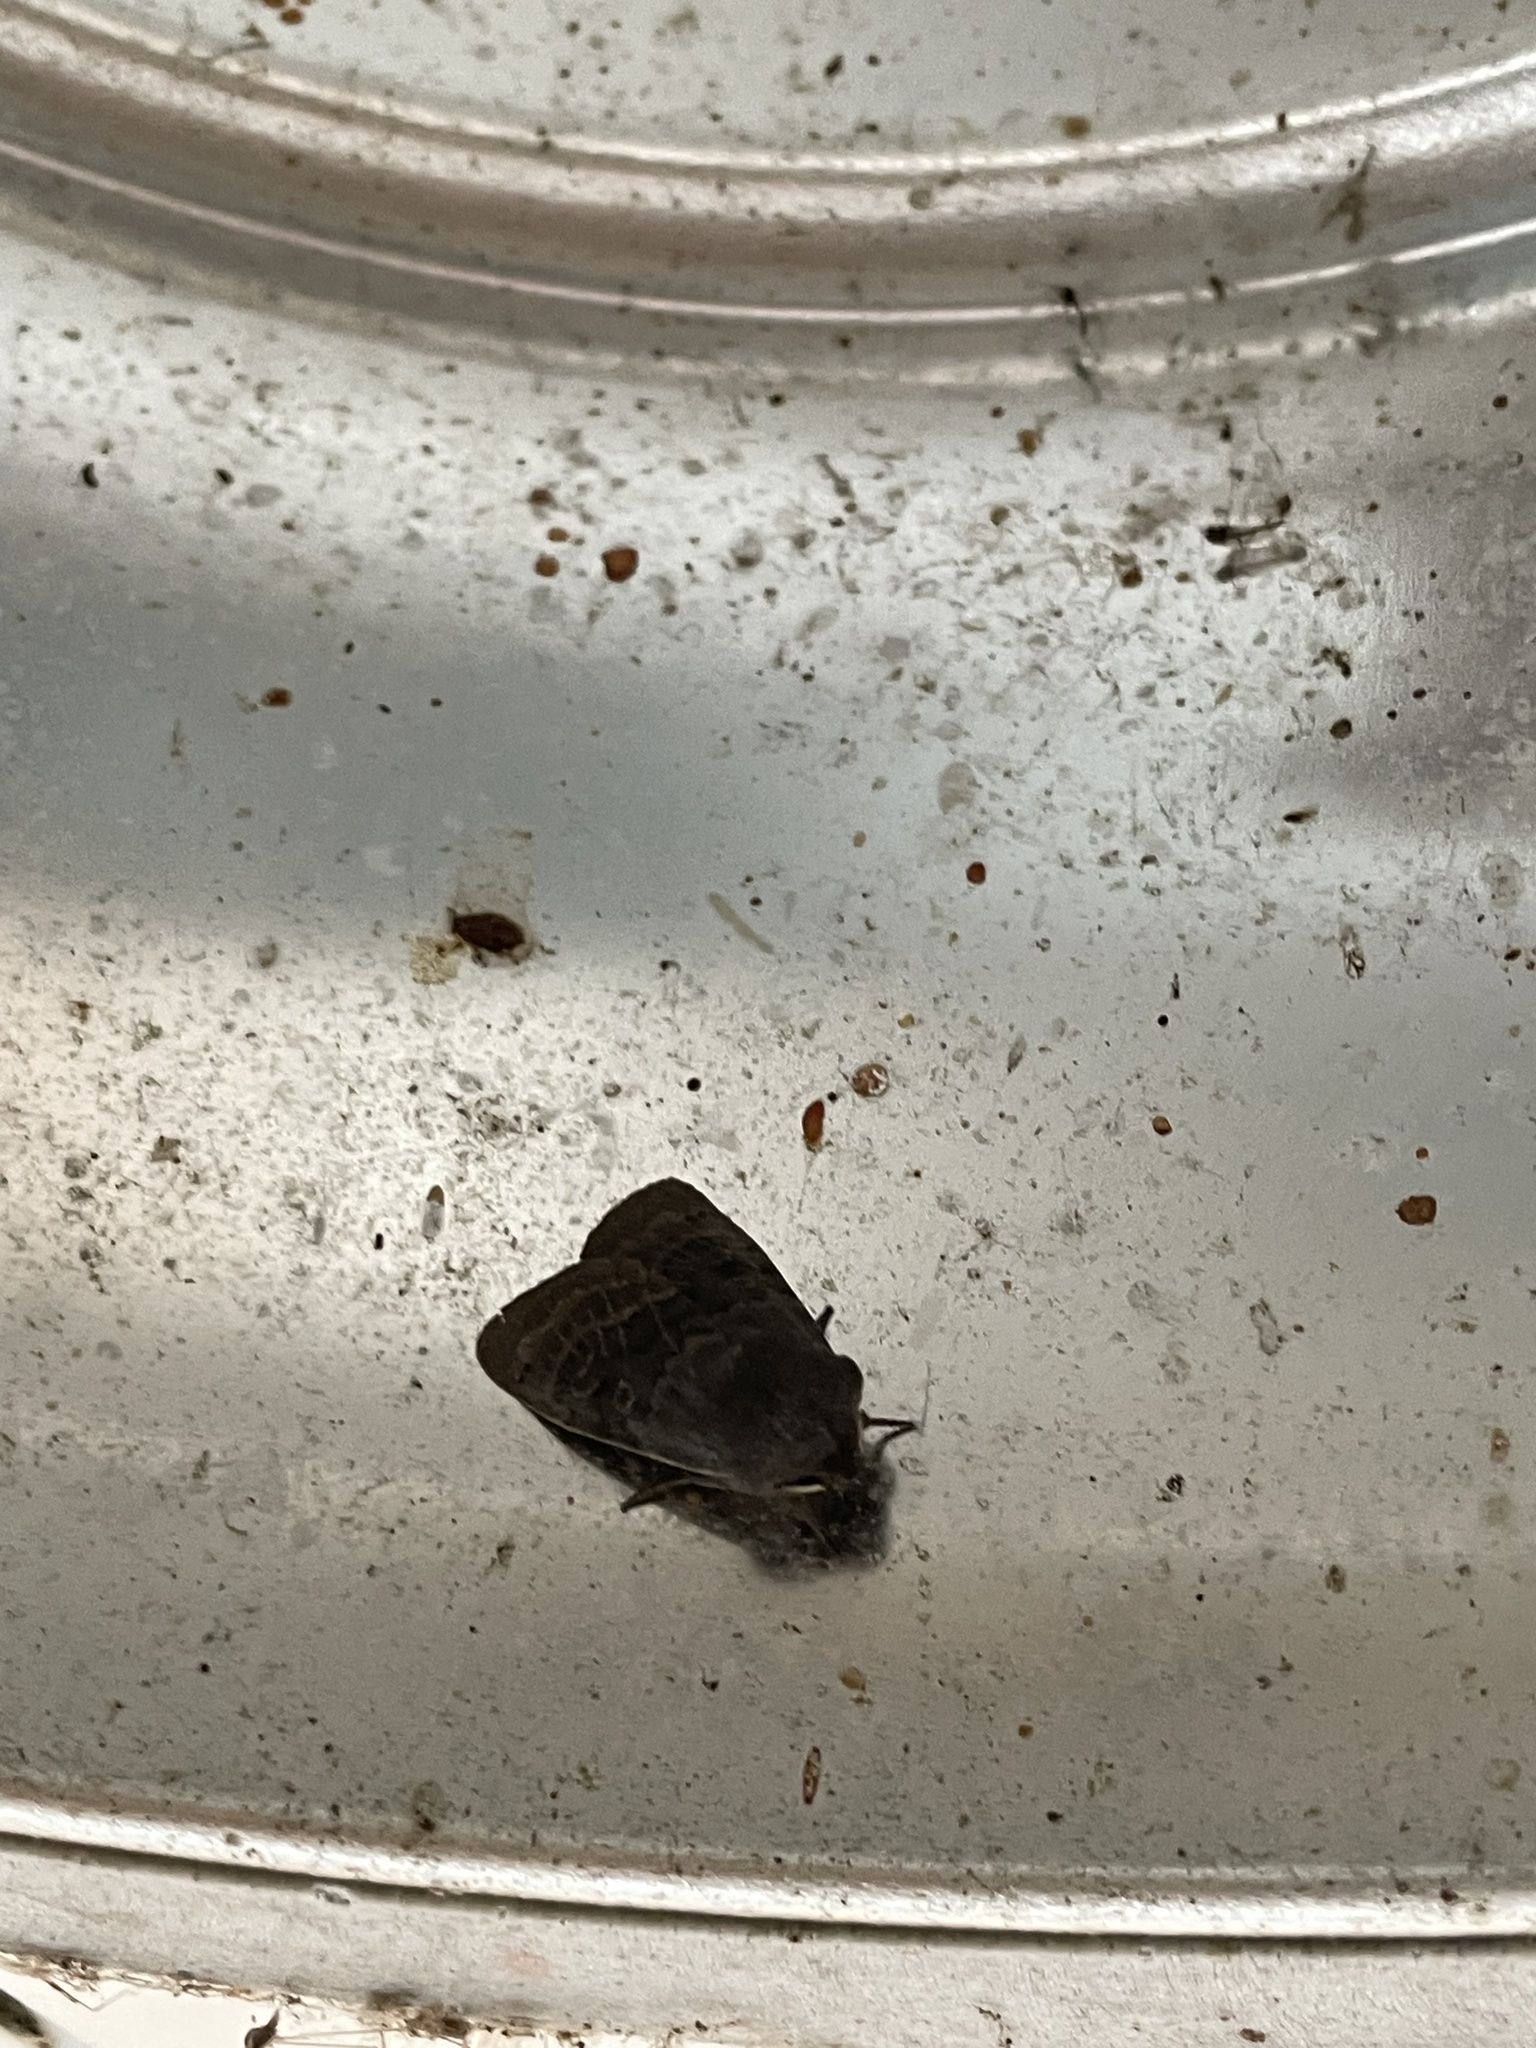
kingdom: Animalia
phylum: Arthropoda
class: Insecta
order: Lepidoptera
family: Noctuidae
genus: Homoglaea
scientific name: Homoglaea hircina
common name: Goat sallow
